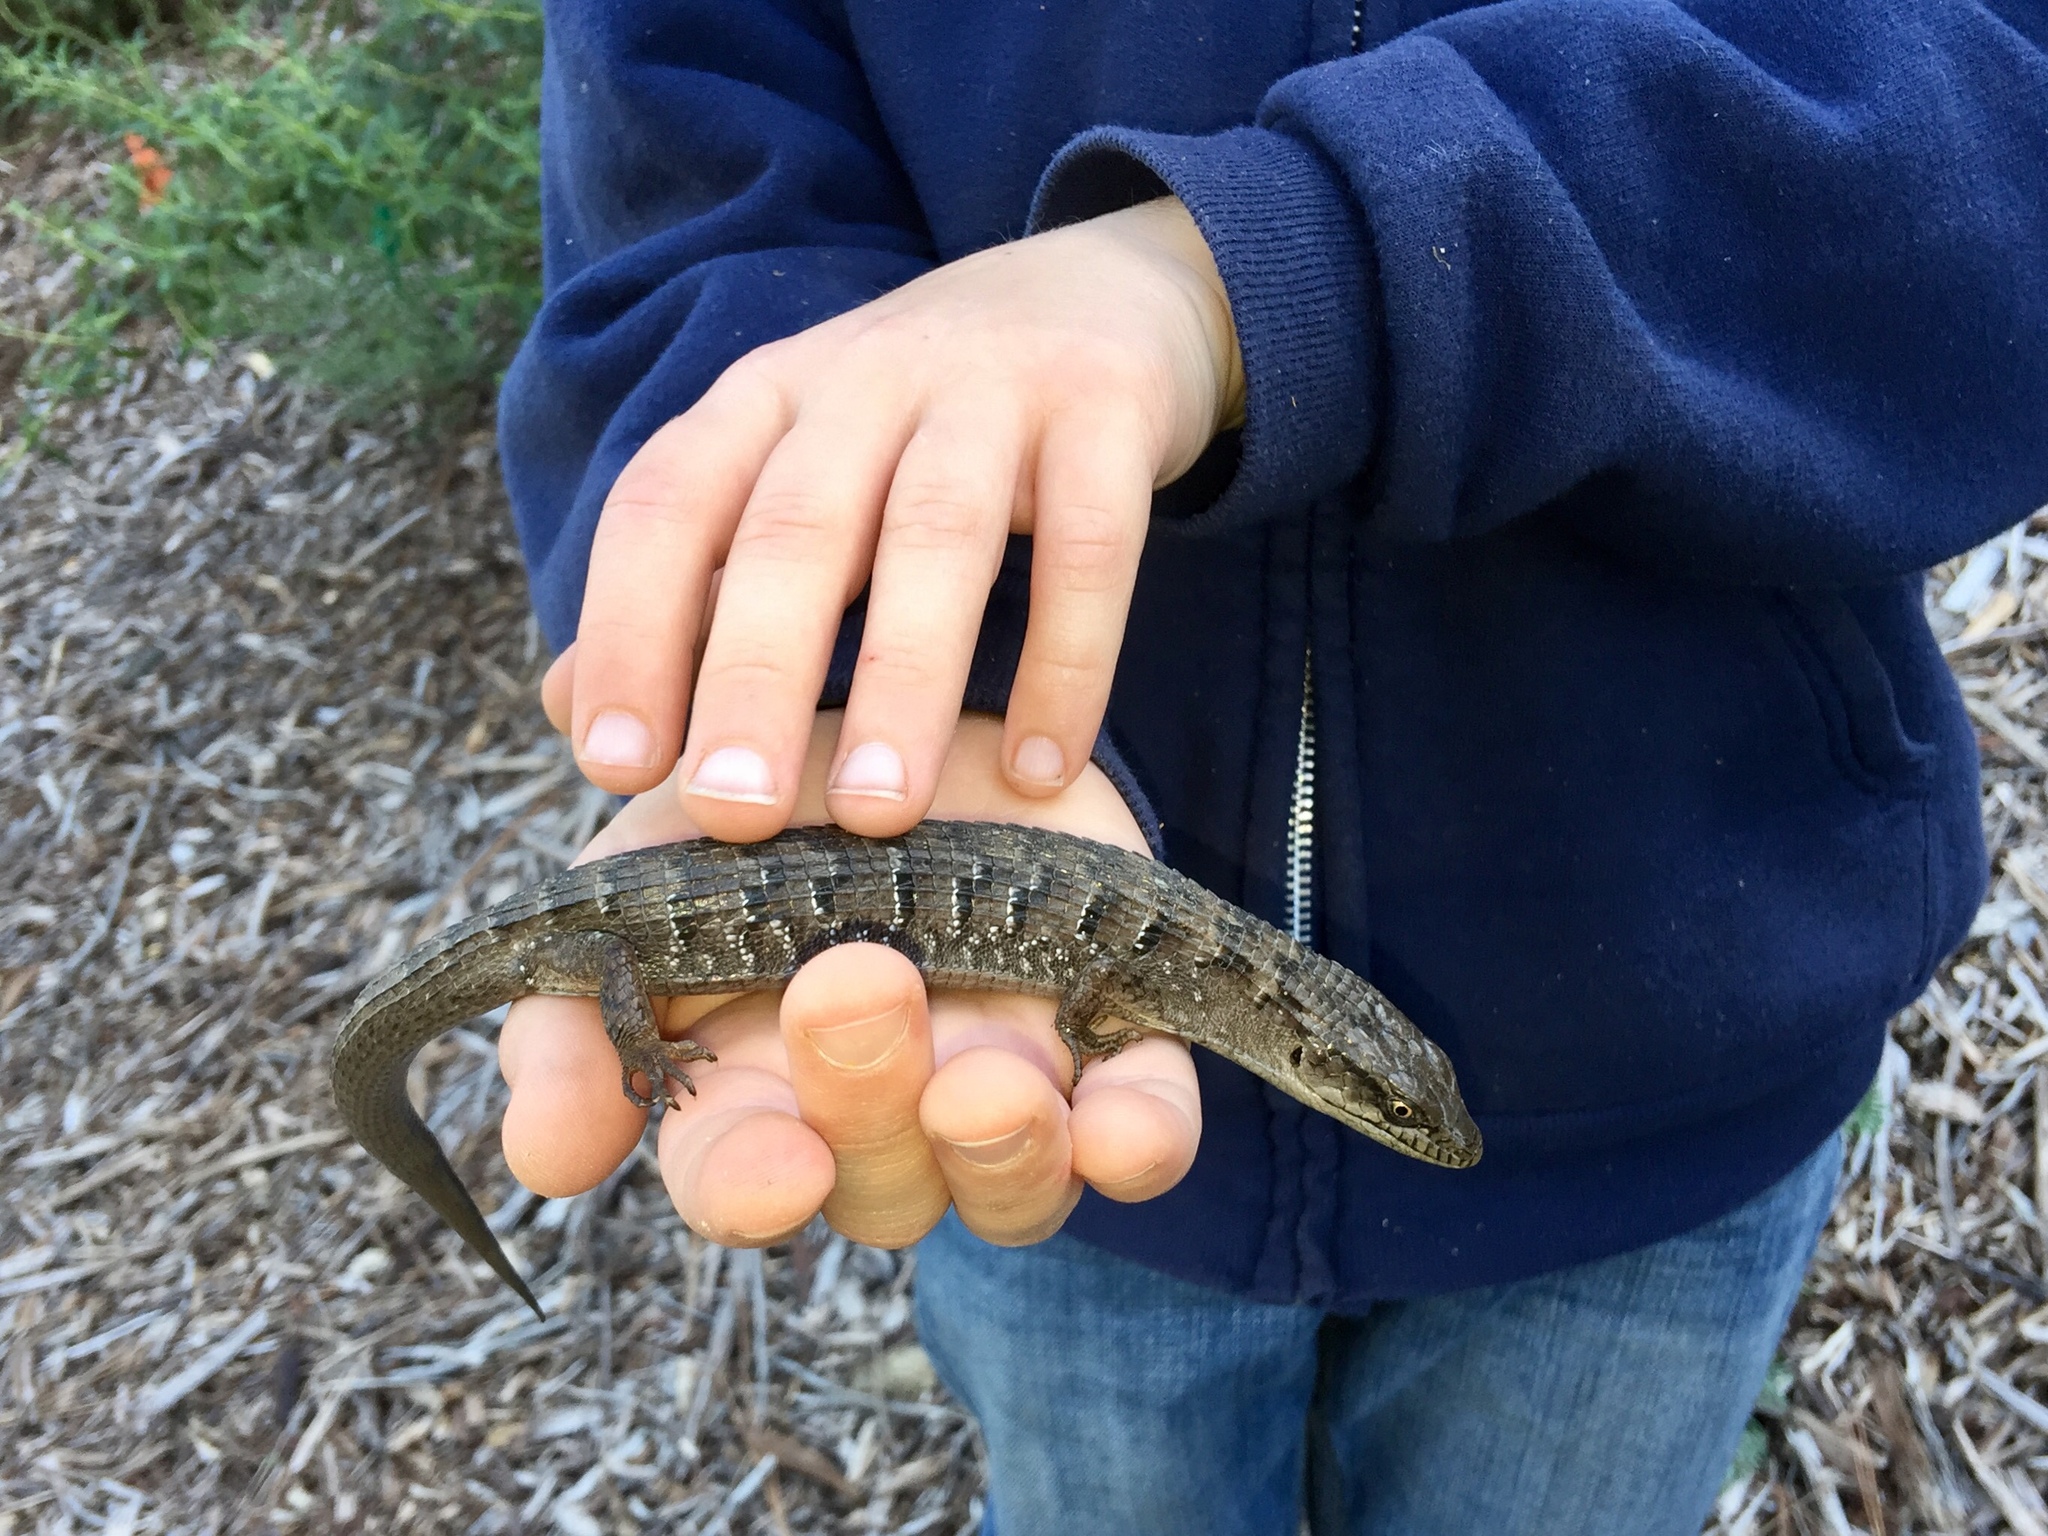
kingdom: Animalia
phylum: Chordata
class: Squamata
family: Anguidae
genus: Elgaria
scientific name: Elgaria multicarinata
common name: Southern alligator lizard
